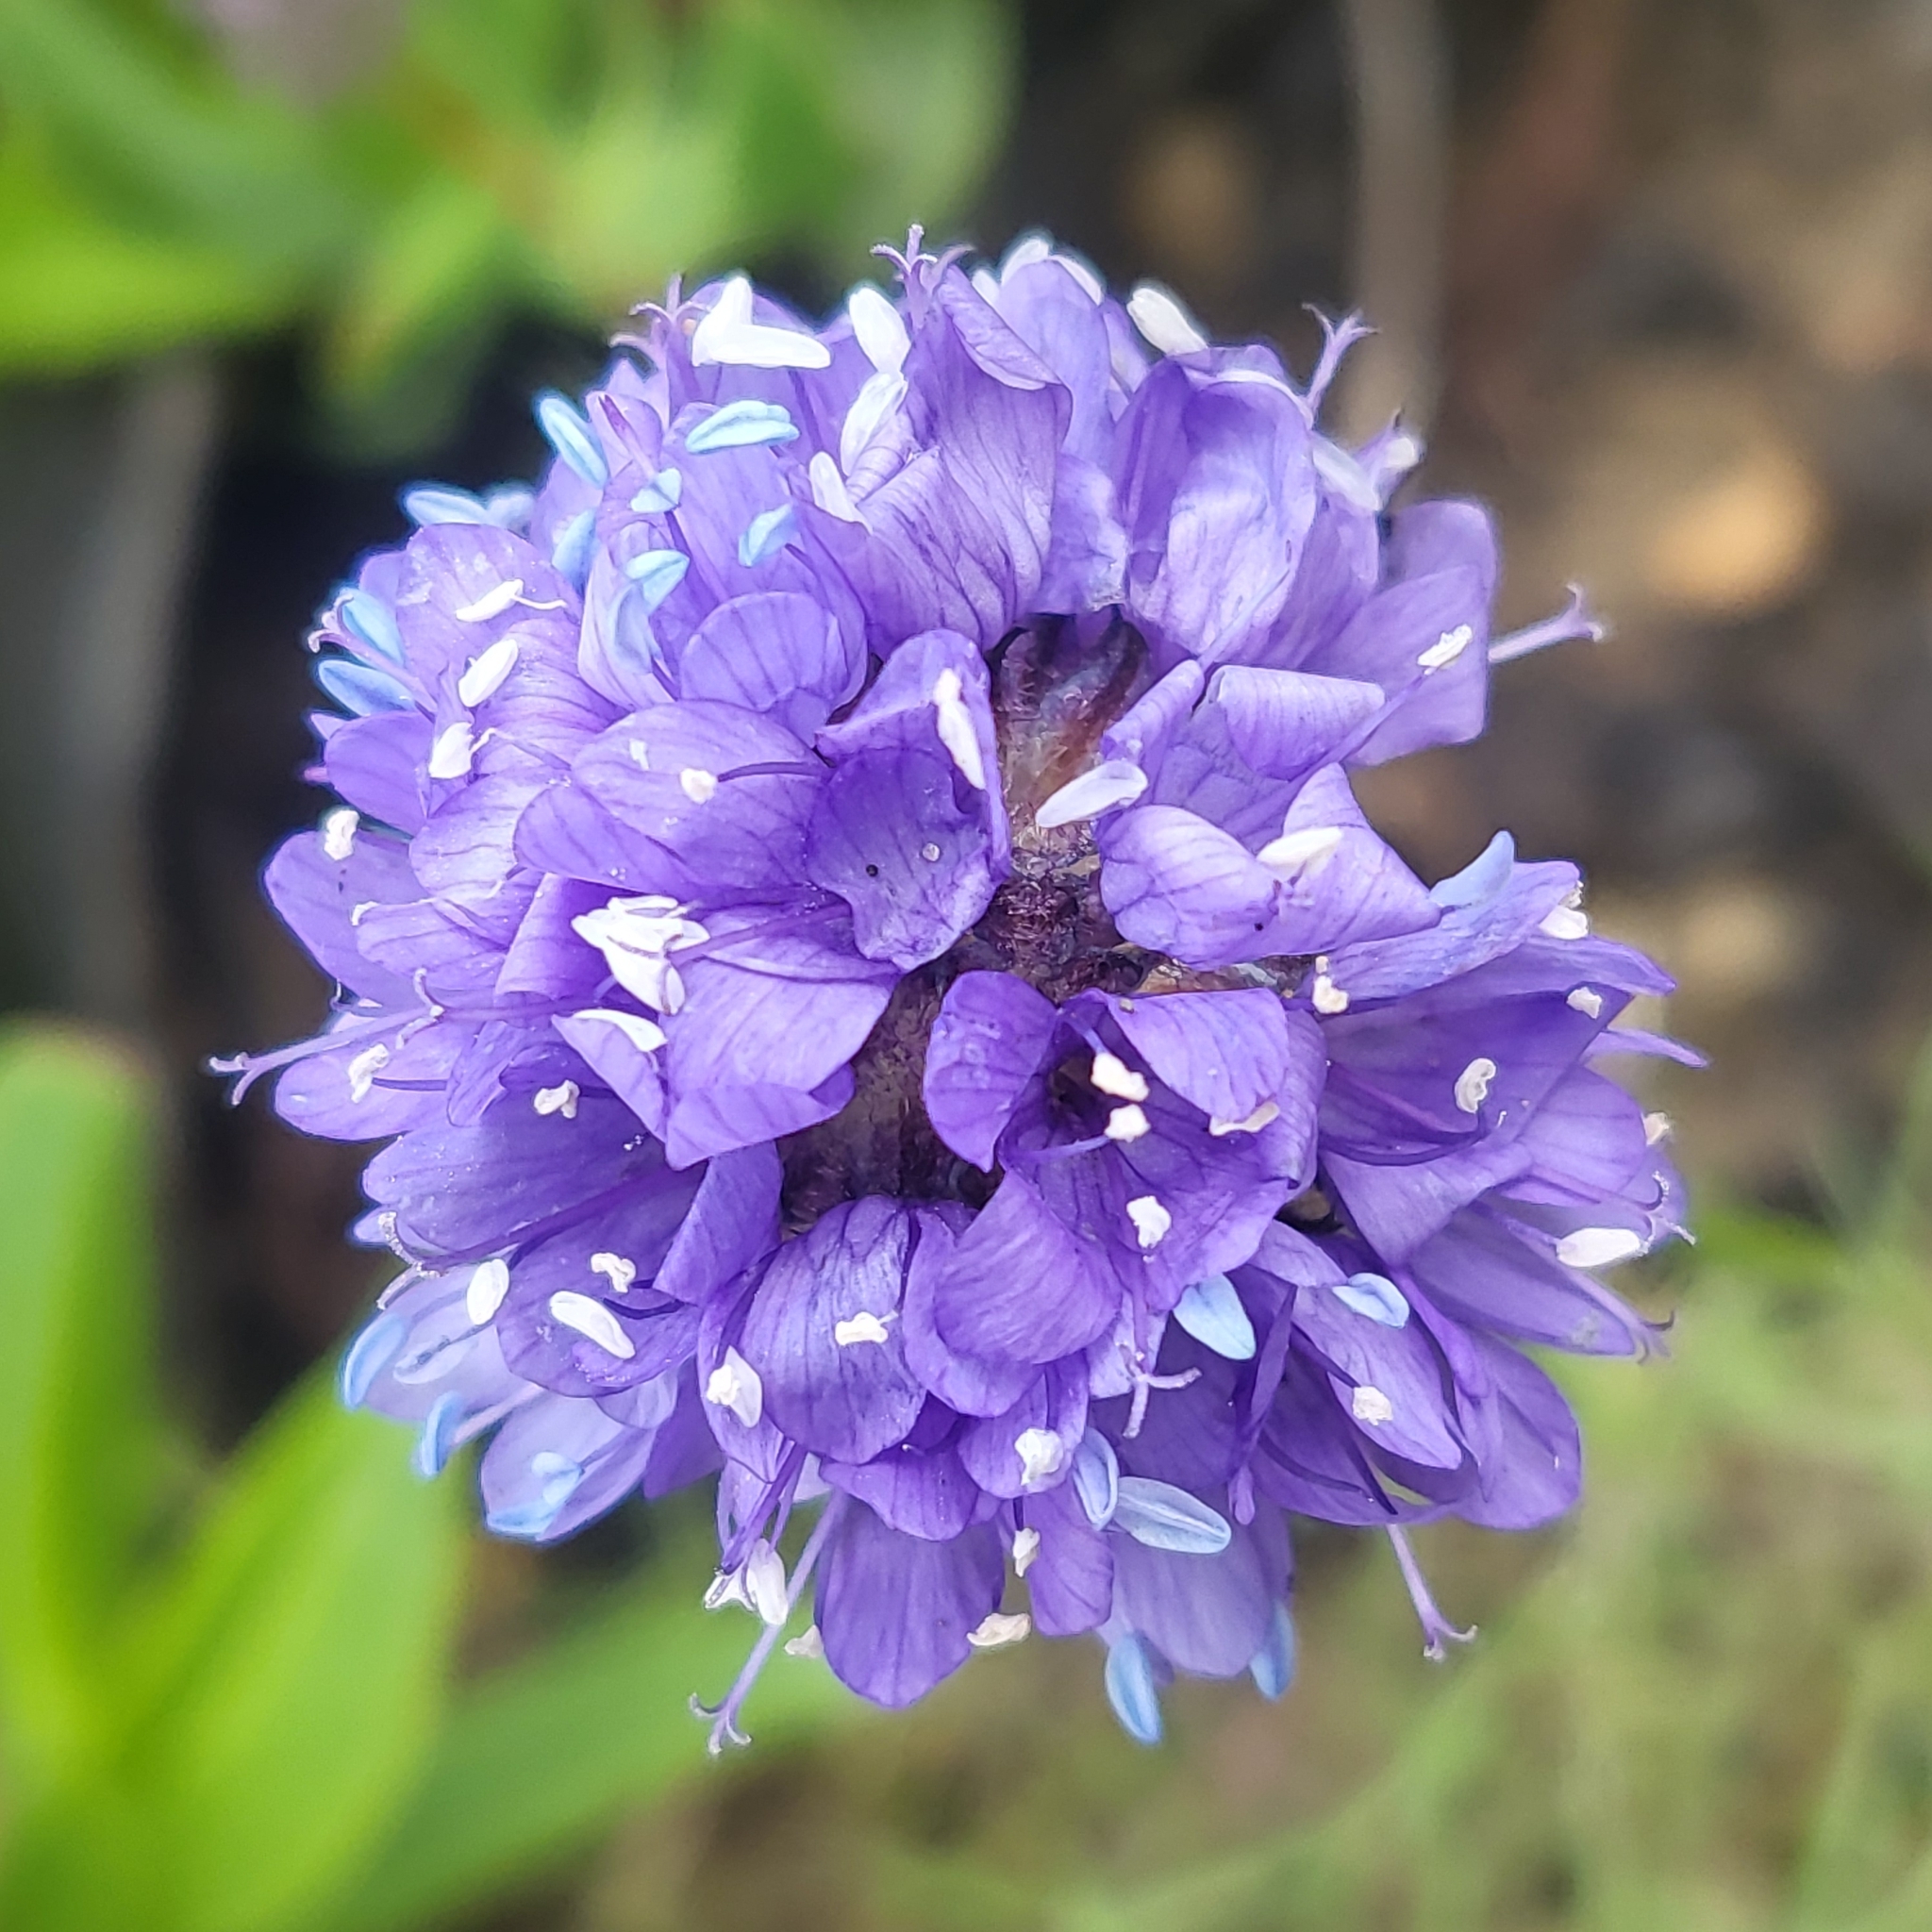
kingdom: Plantae
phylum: Tracheophyta
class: Magnoliopsida
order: Ericales
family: Polemoniaceae
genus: Gilia
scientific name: Gilia capitata
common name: Bluehead gilia
